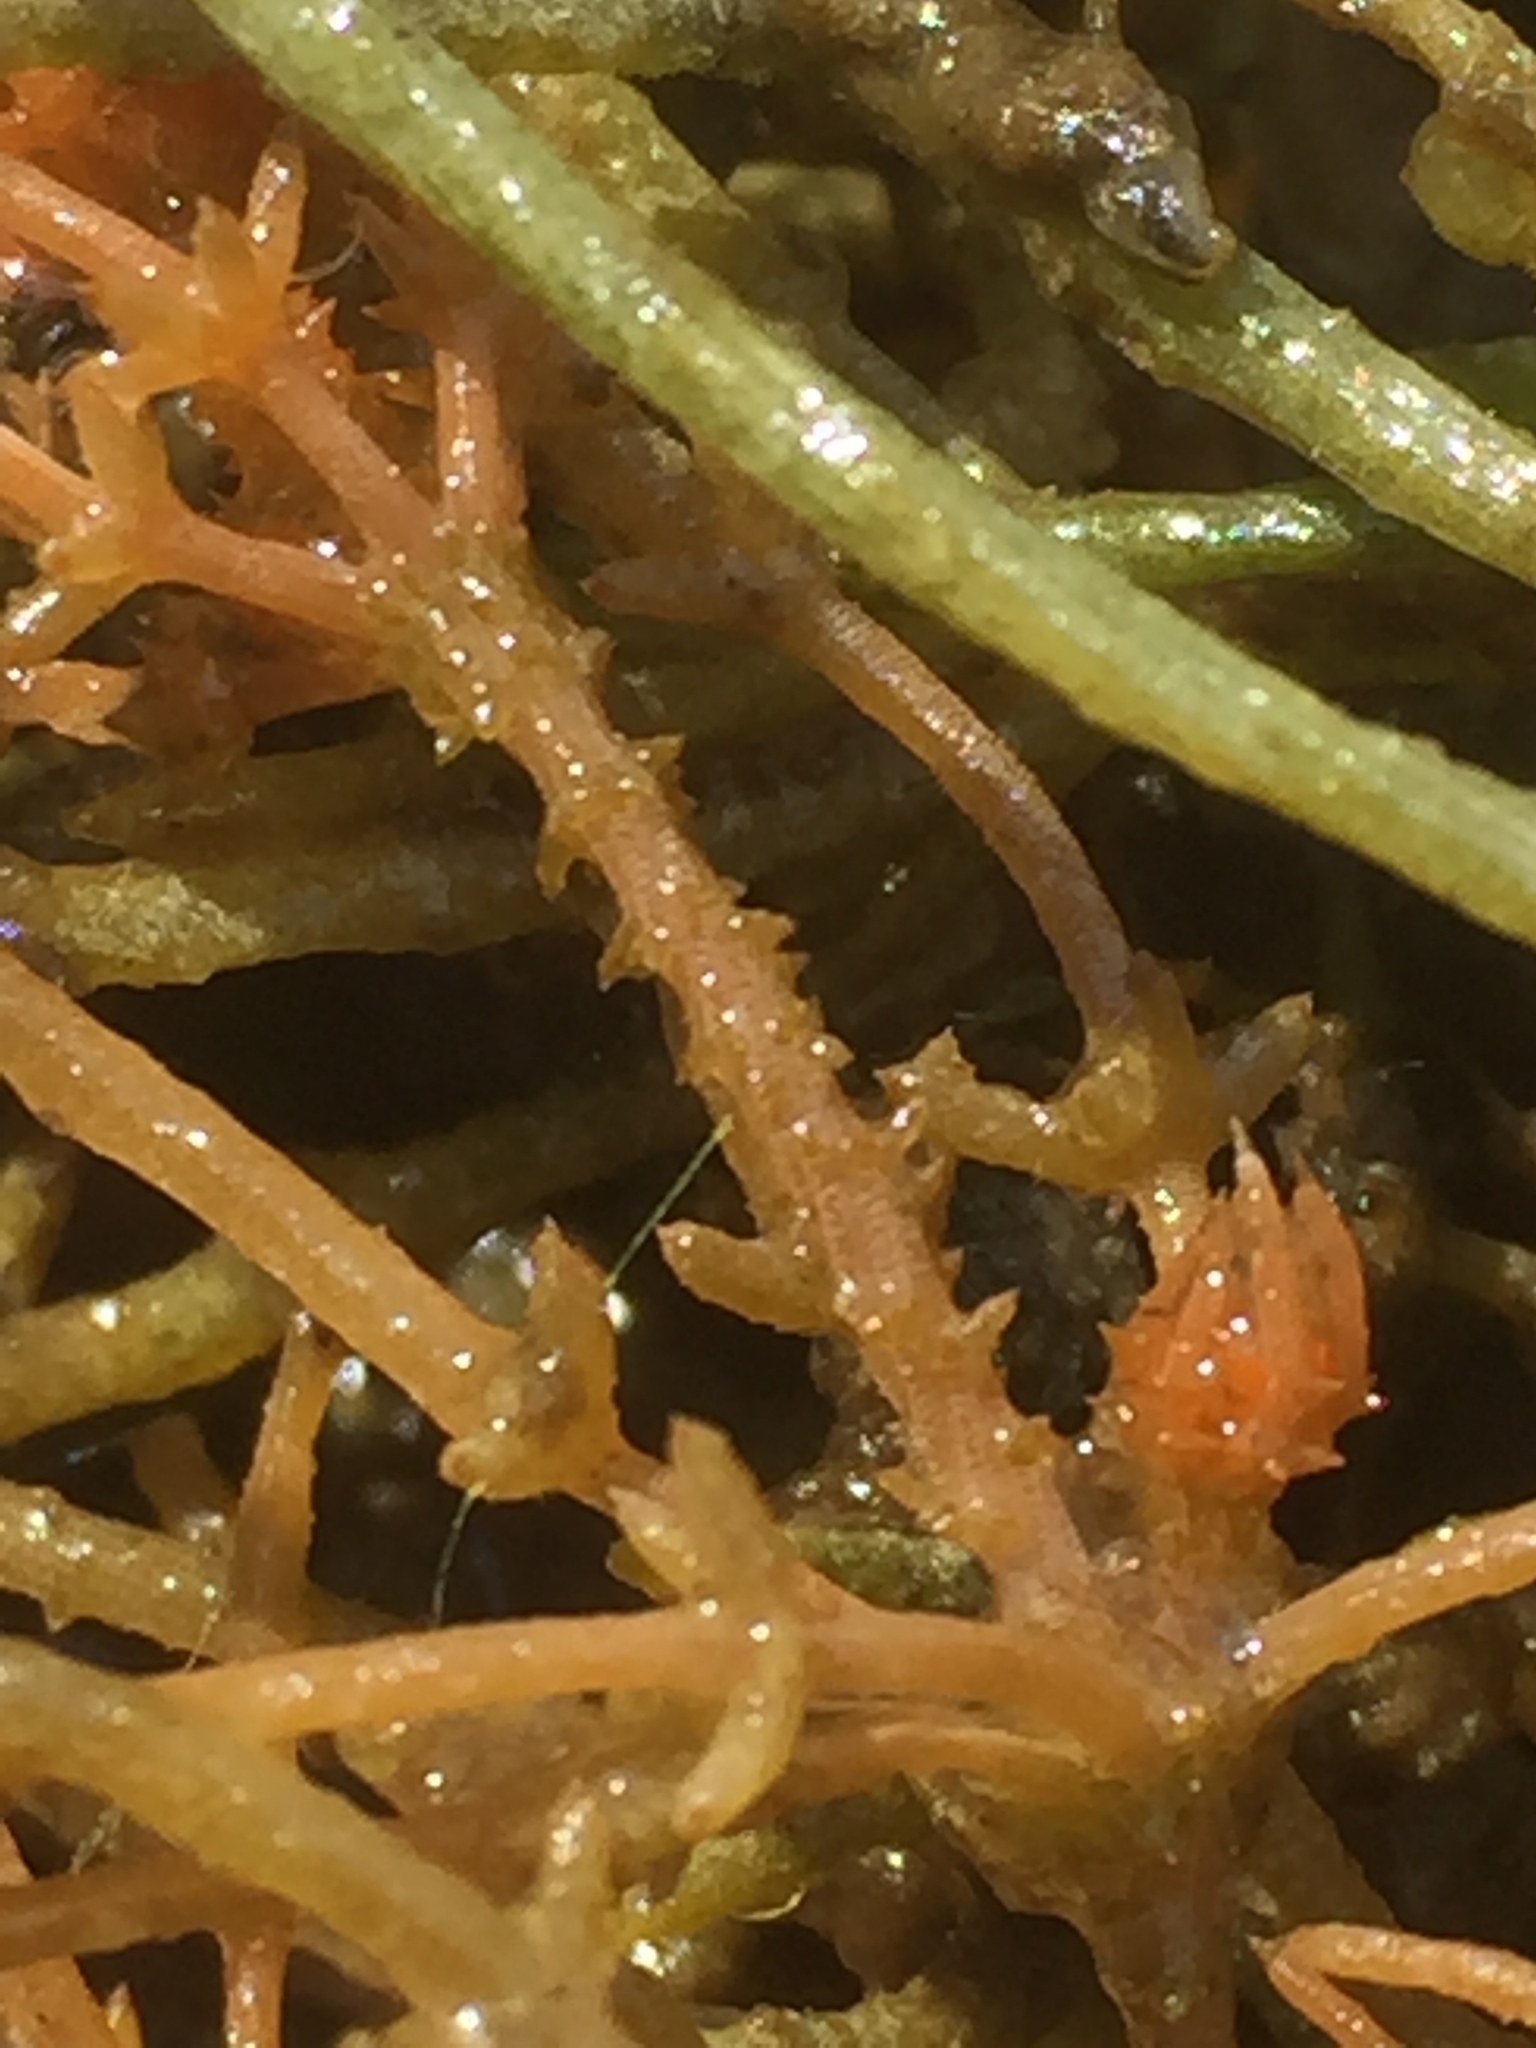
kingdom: Plantae
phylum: Charophyta
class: Charophyceae
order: Charales
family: Characeae
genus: Chara
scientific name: Chara tomentosa
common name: Coral stonewort
